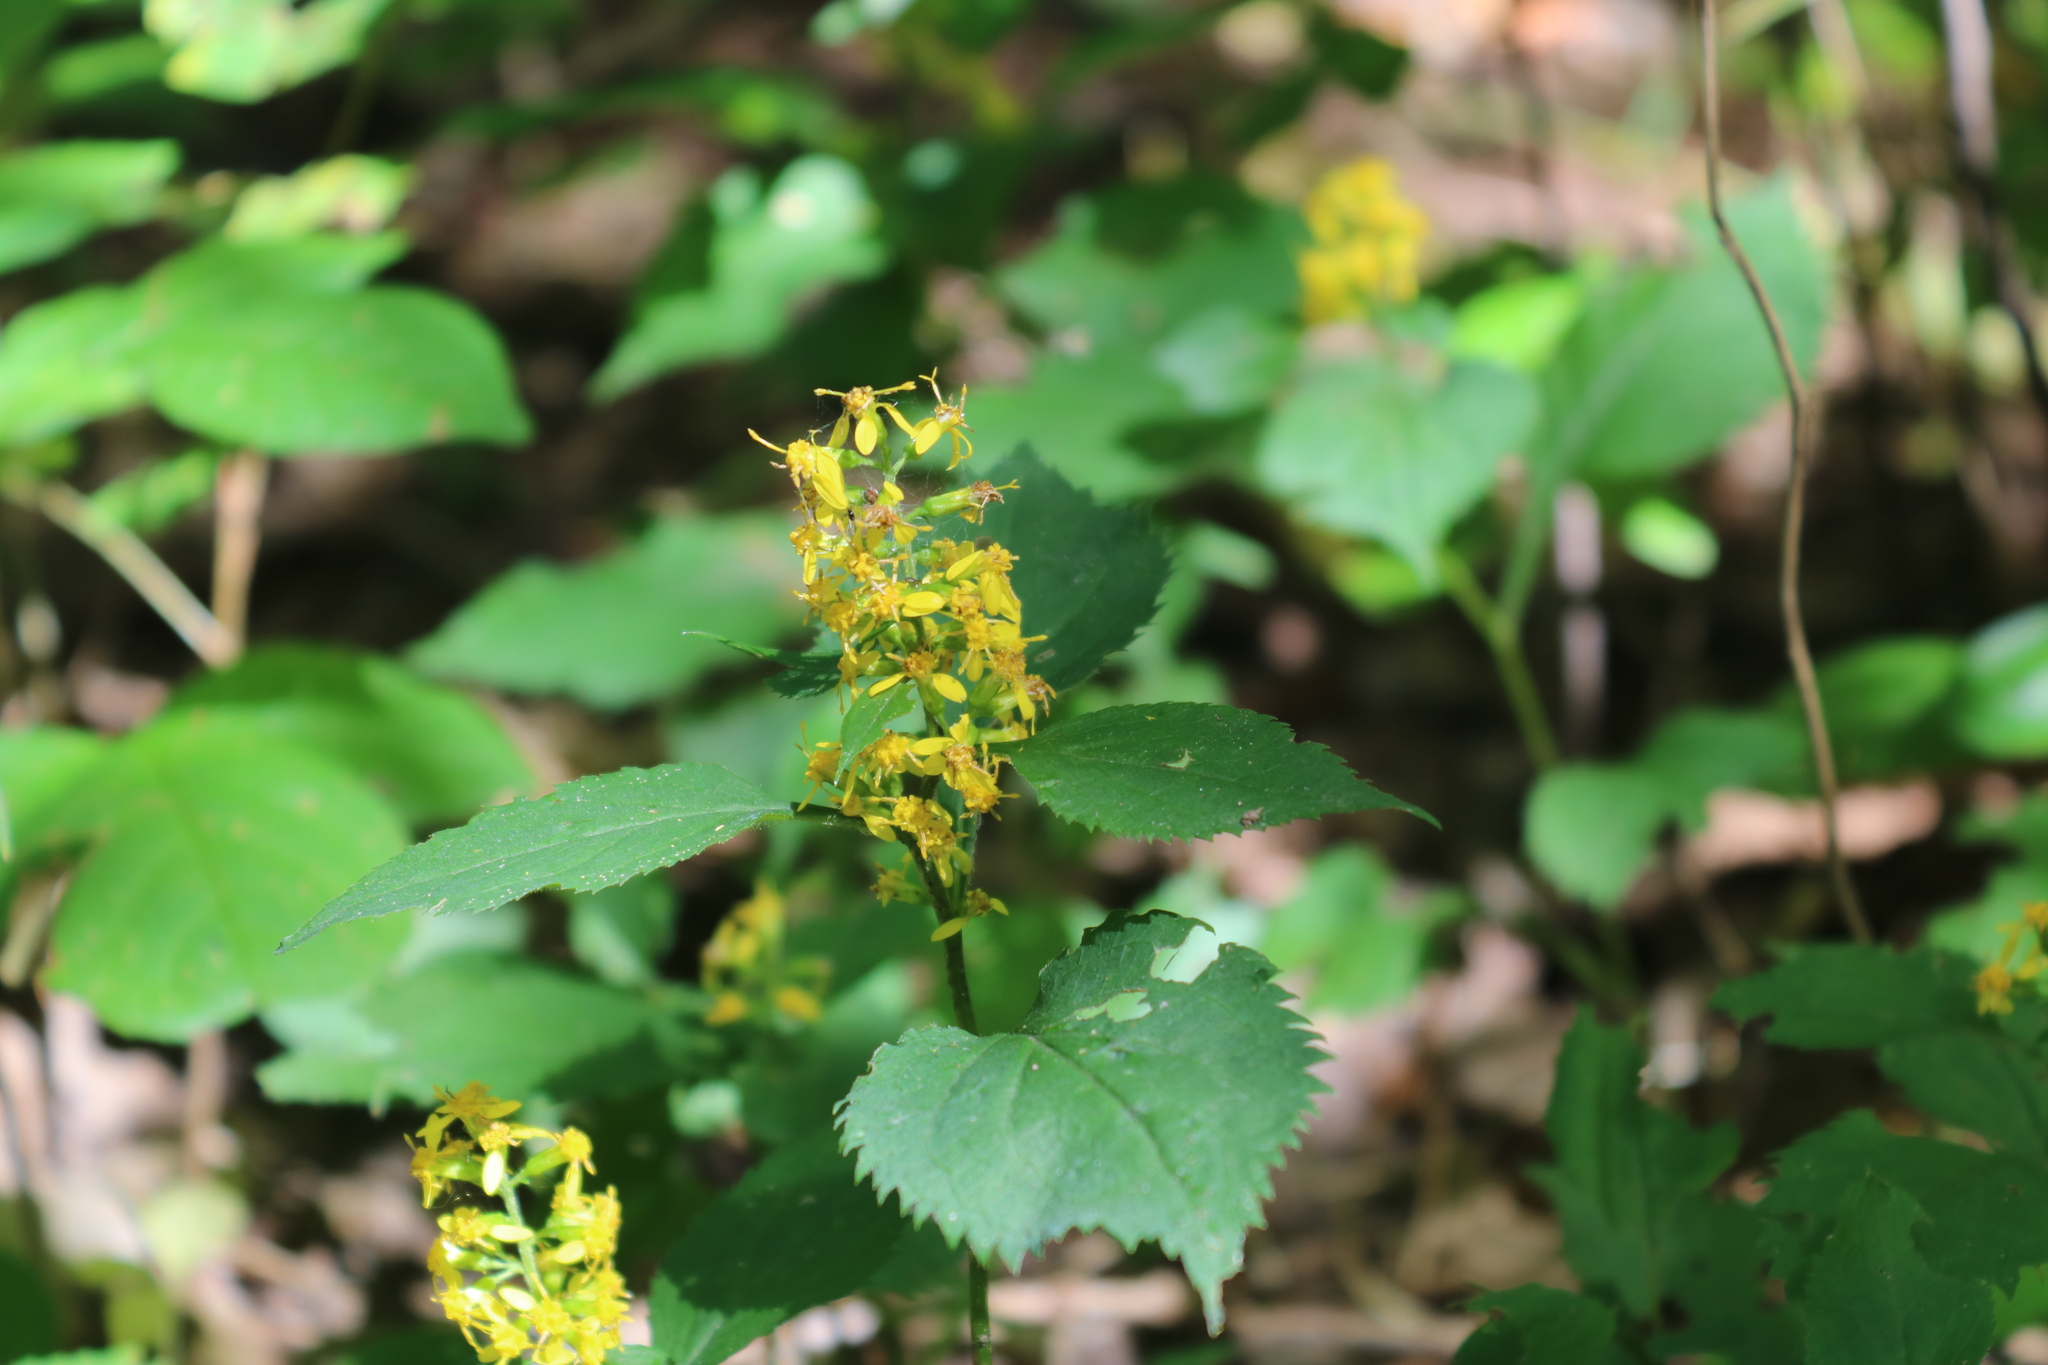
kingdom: Plantae
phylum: Tracheophyta
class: Magnoliopsida
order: Asterales
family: Asteraceae
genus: Solidago
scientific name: Solidago flexicaulis
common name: Zig-zag goldenrod
